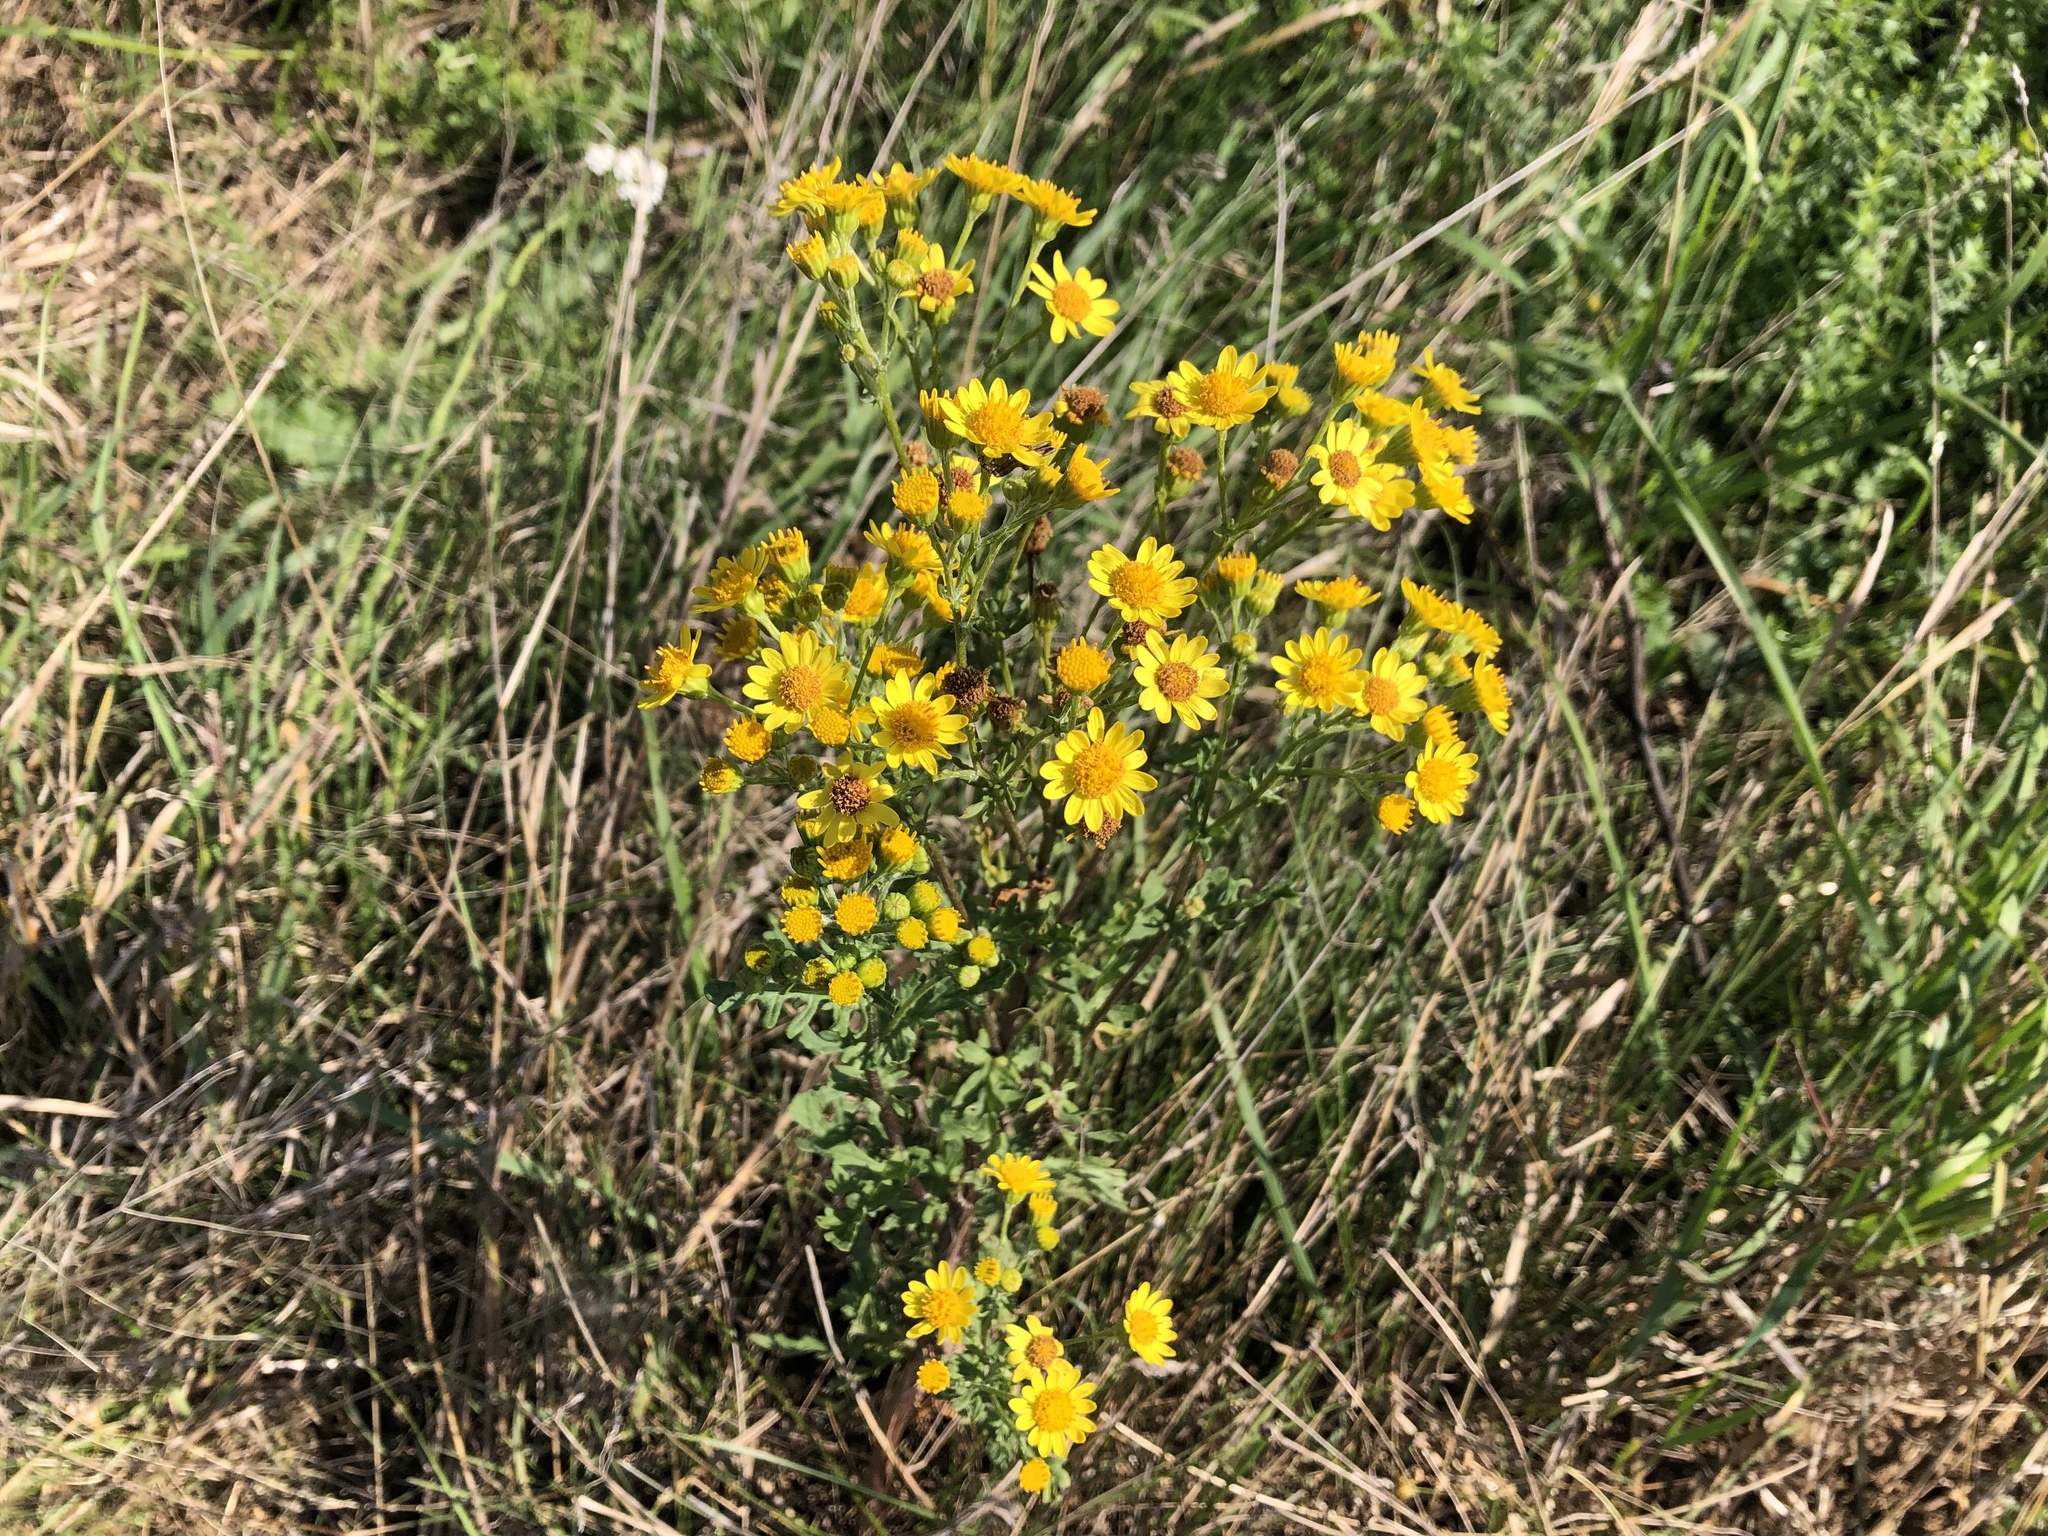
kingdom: Plantae
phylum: Tracheophyta
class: Magnoliopsida
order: Asterales
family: Asteraceae
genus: Jacobaea
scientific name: Jacobaea vulgaris
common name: Stinking willie
